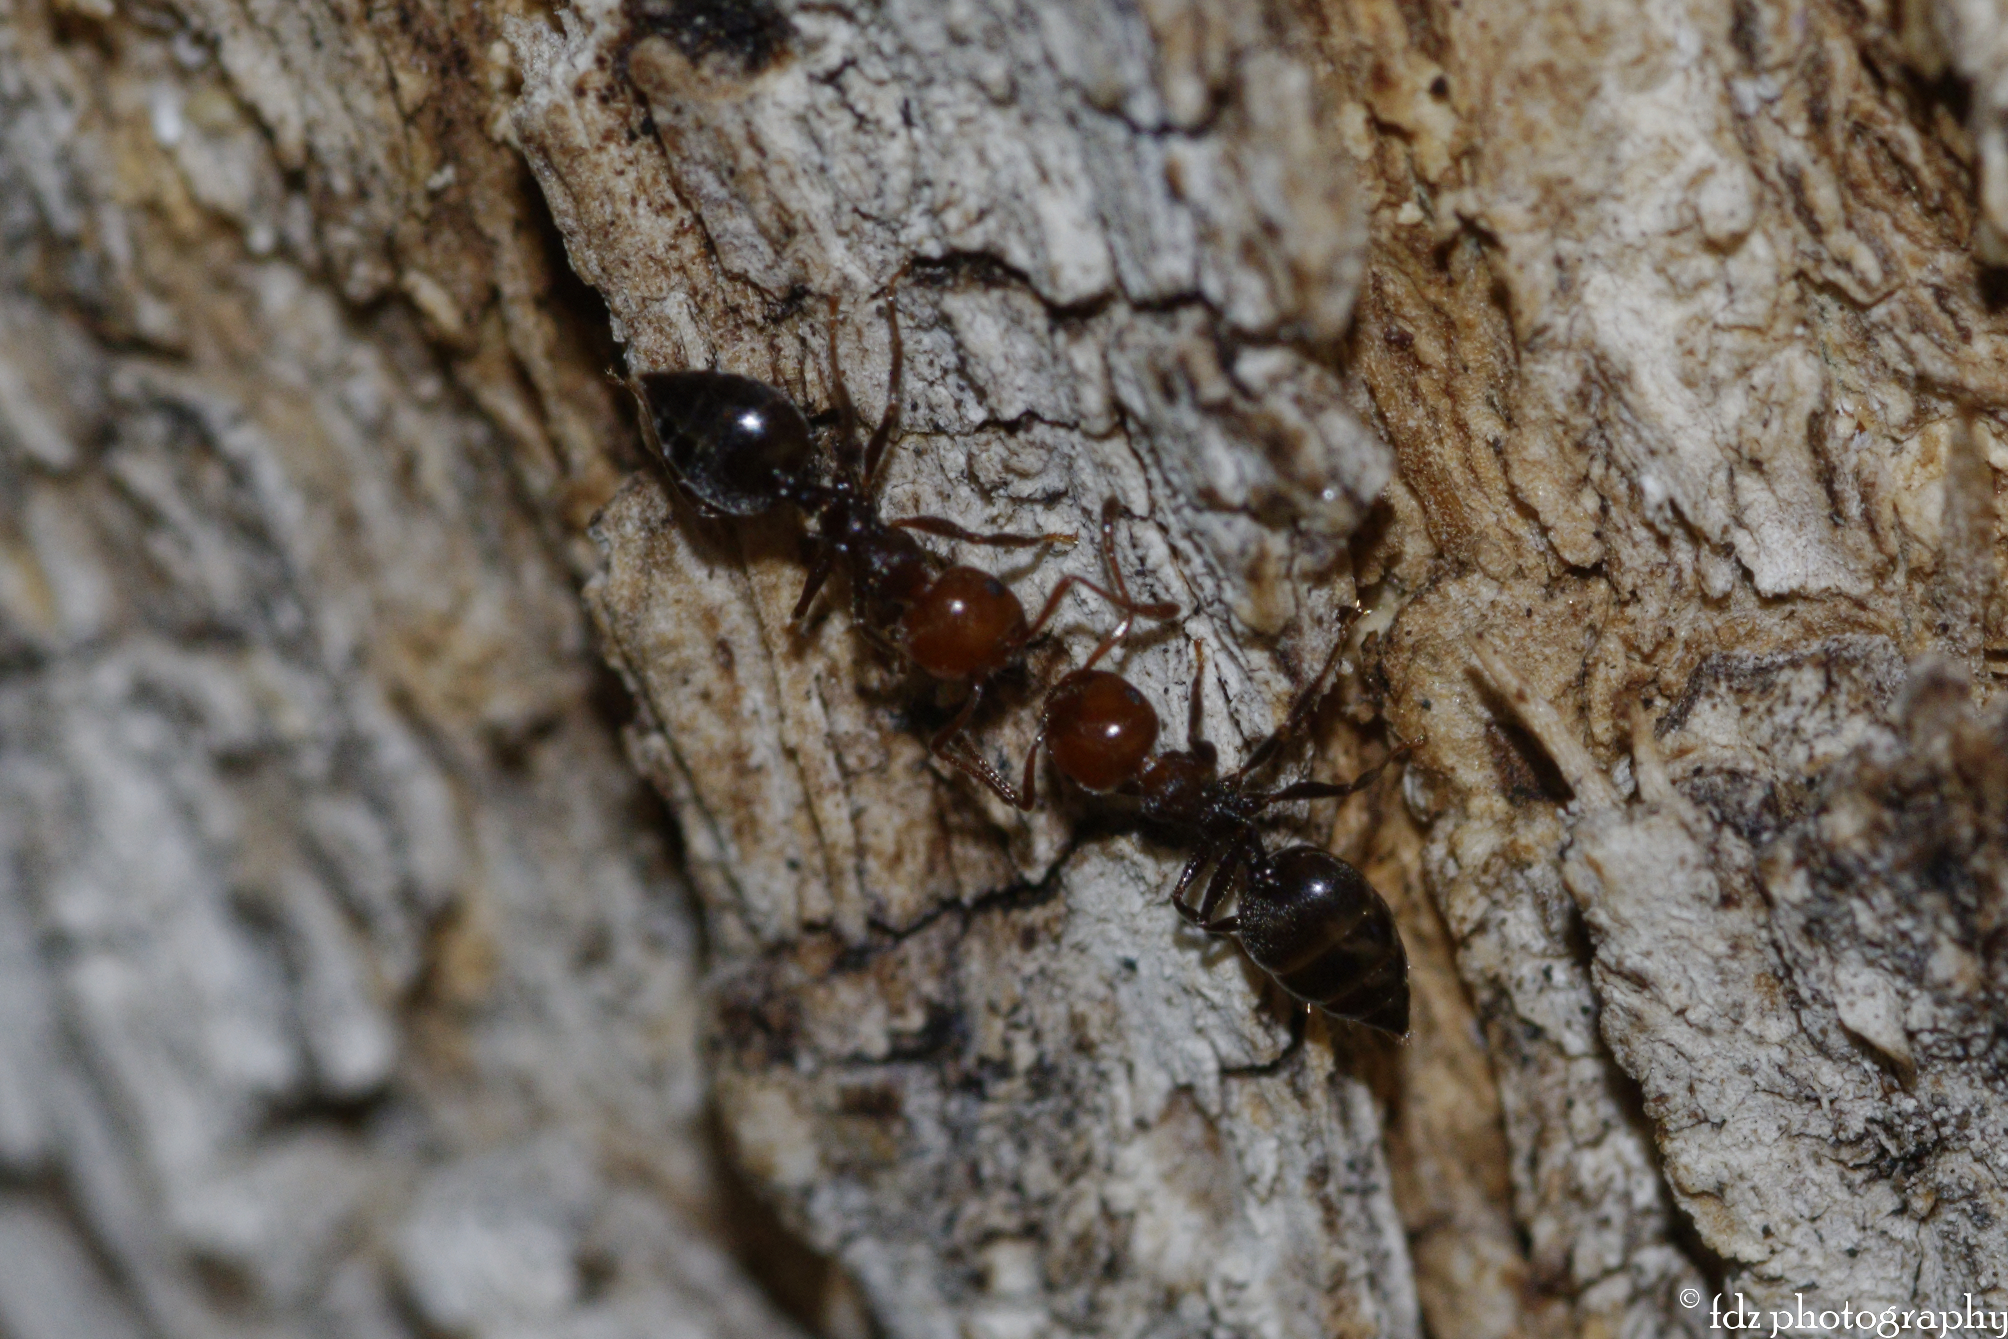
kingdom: Animalia
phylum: Arthropoda
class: Insecta
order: Hymenoptera
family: Formicidae
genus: Crematogaster
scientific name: Crematogaster scutellaris
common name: Fourmi du liège
